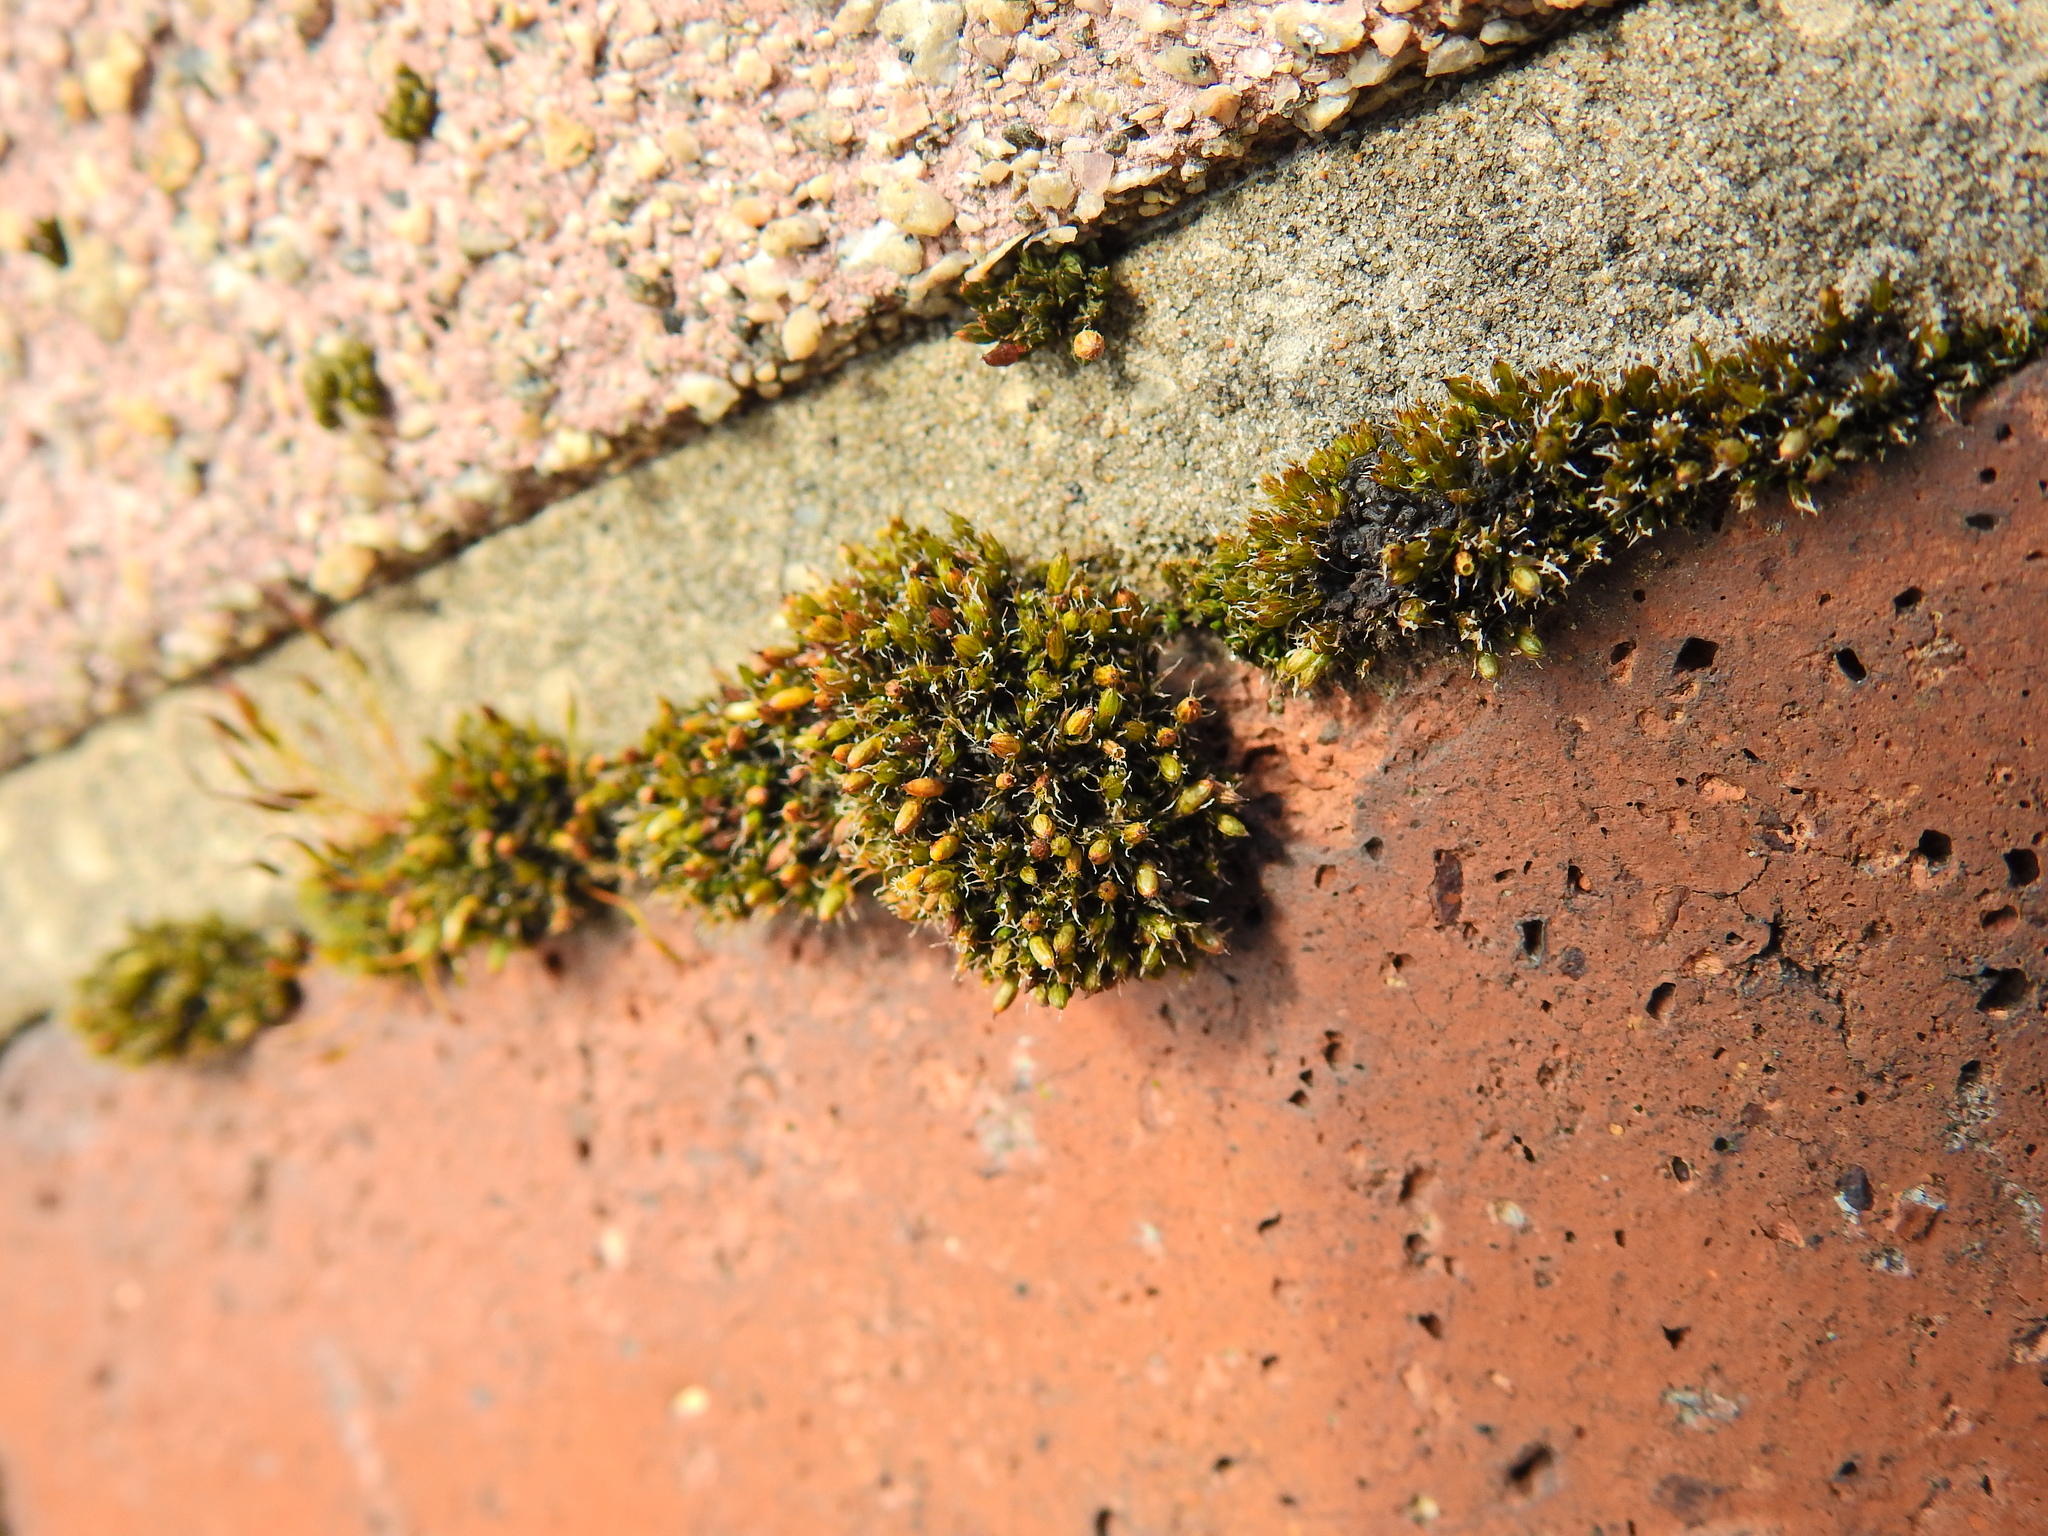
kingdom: Plantae
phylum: Bryophyta
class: Bryopsida
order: Orthotrichales
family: Orthotrichaceae
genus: Orthotrichum
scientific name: Orthotrichum diaphanum
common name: White-tipped bristle-moss
